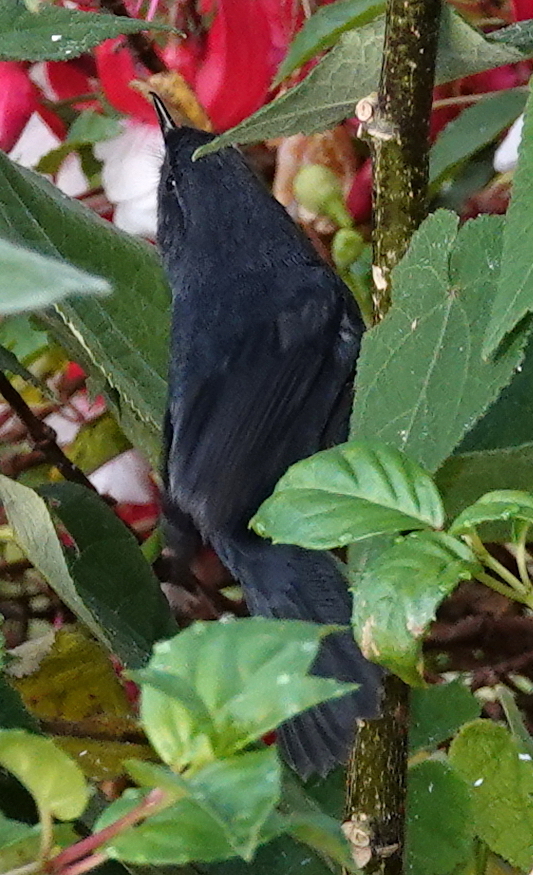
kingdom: Animalia
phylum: Chordata
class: Aves
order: Passeriformes
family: Thraupidae
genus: Diglossa
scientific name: Diglossa humeralis
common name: Black flowerpiercer
